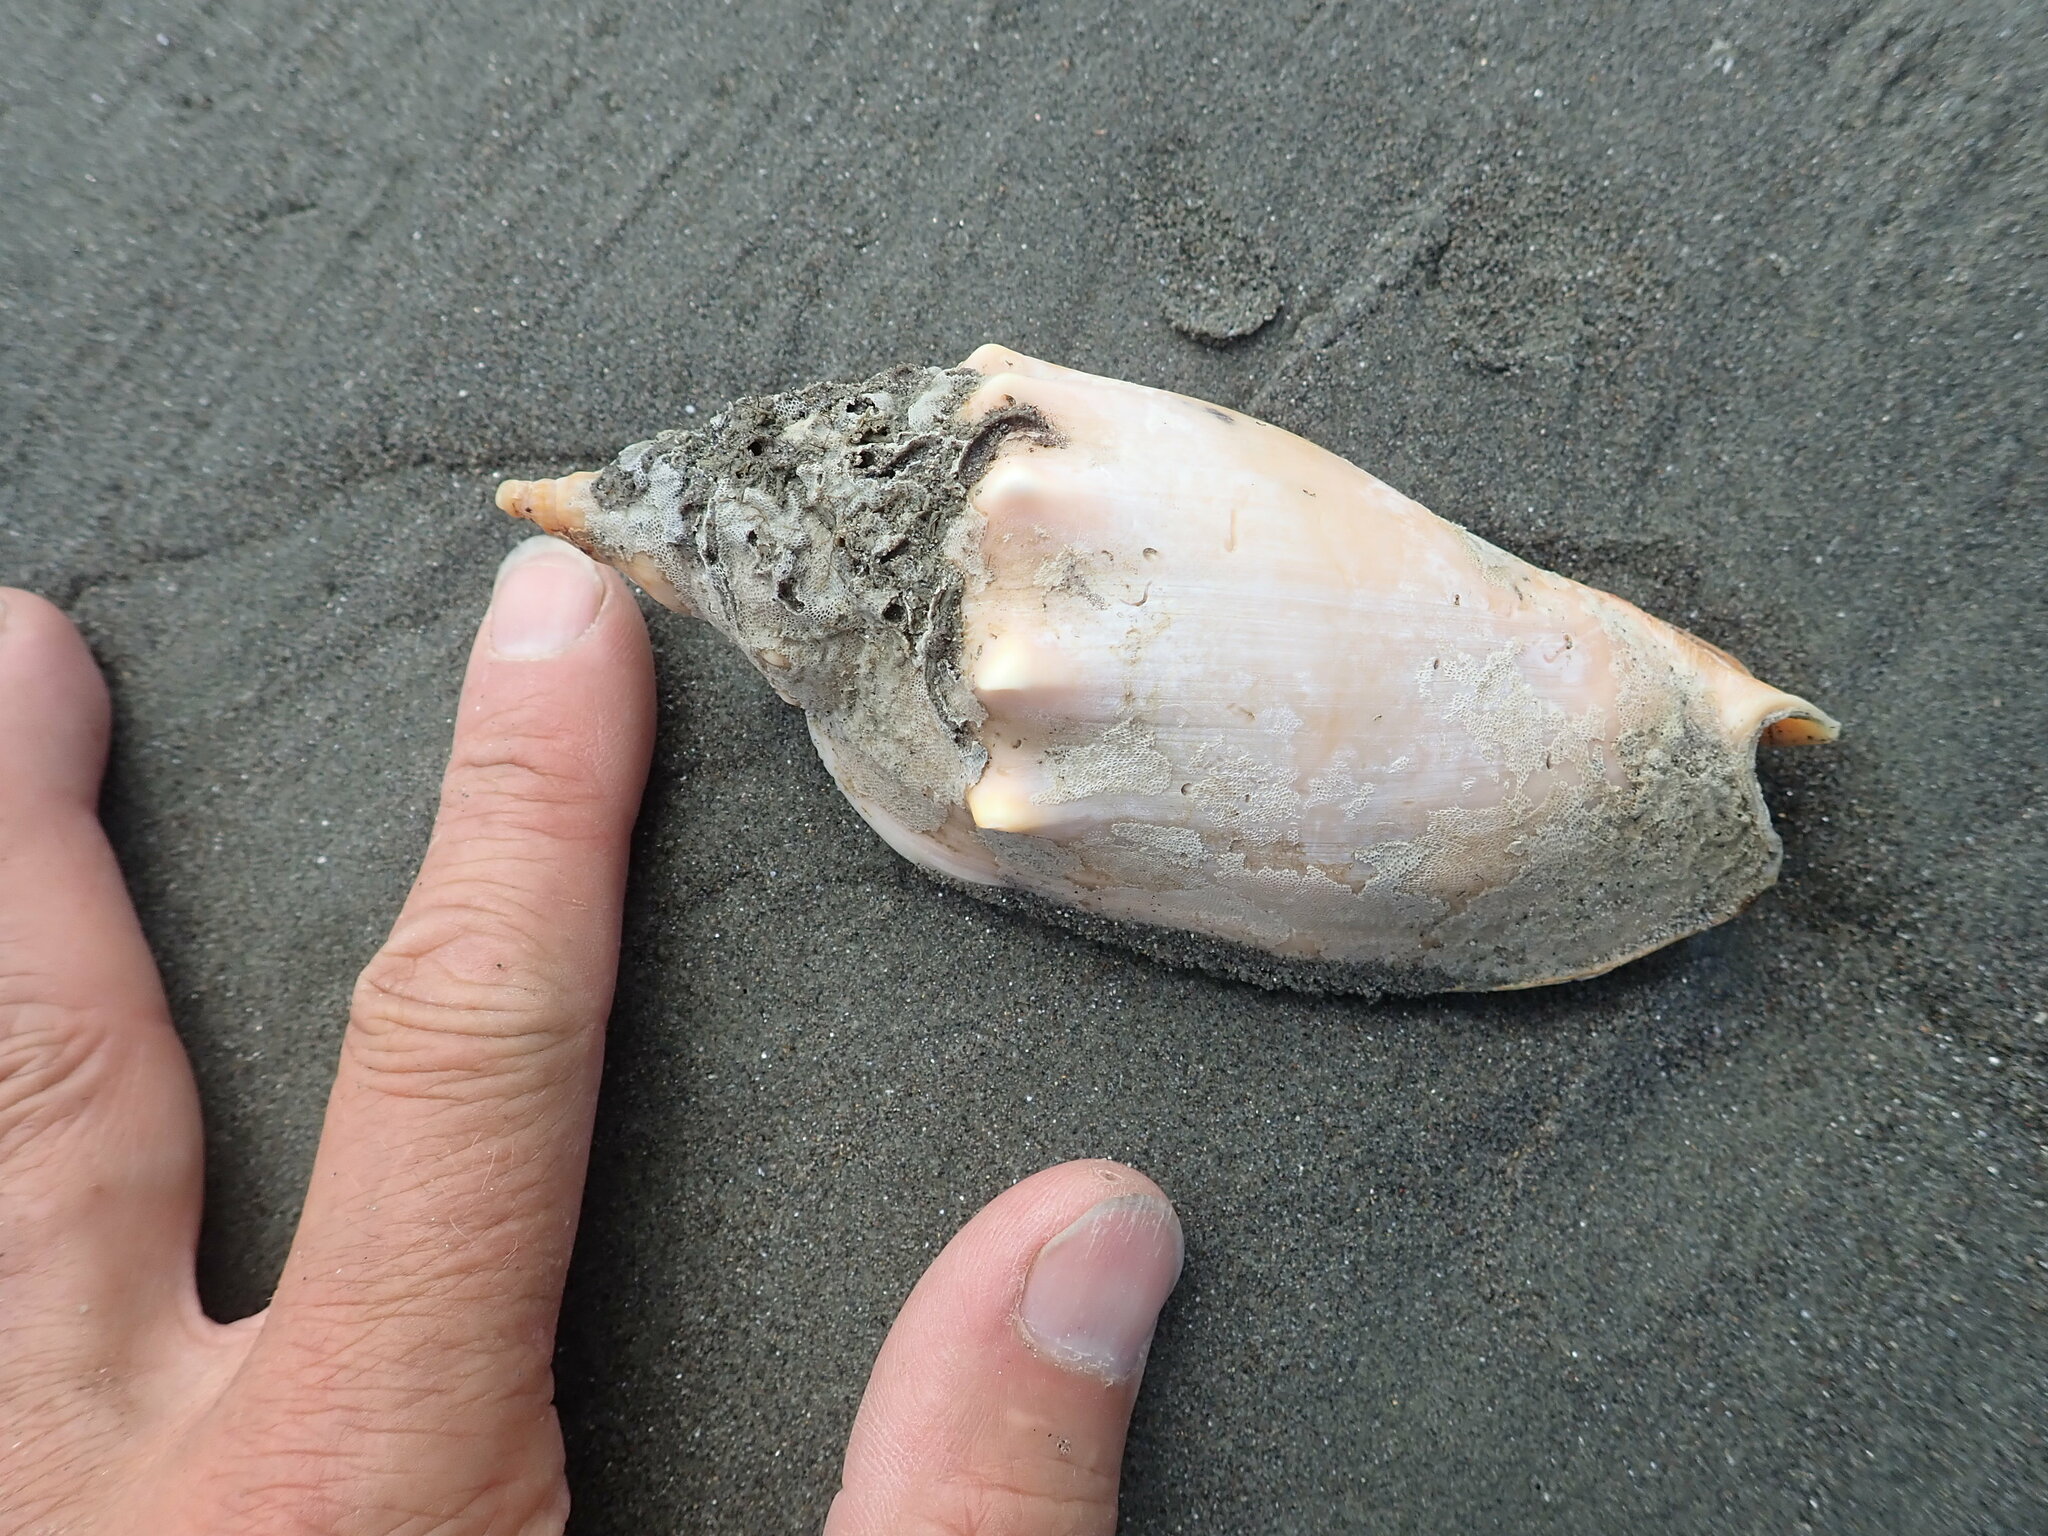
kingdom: Animalia
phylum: Mollusca
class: Gastropoda
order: Neogastropoda
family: Volutidae
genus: Alcithoe
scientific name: Alcithoe arabica
